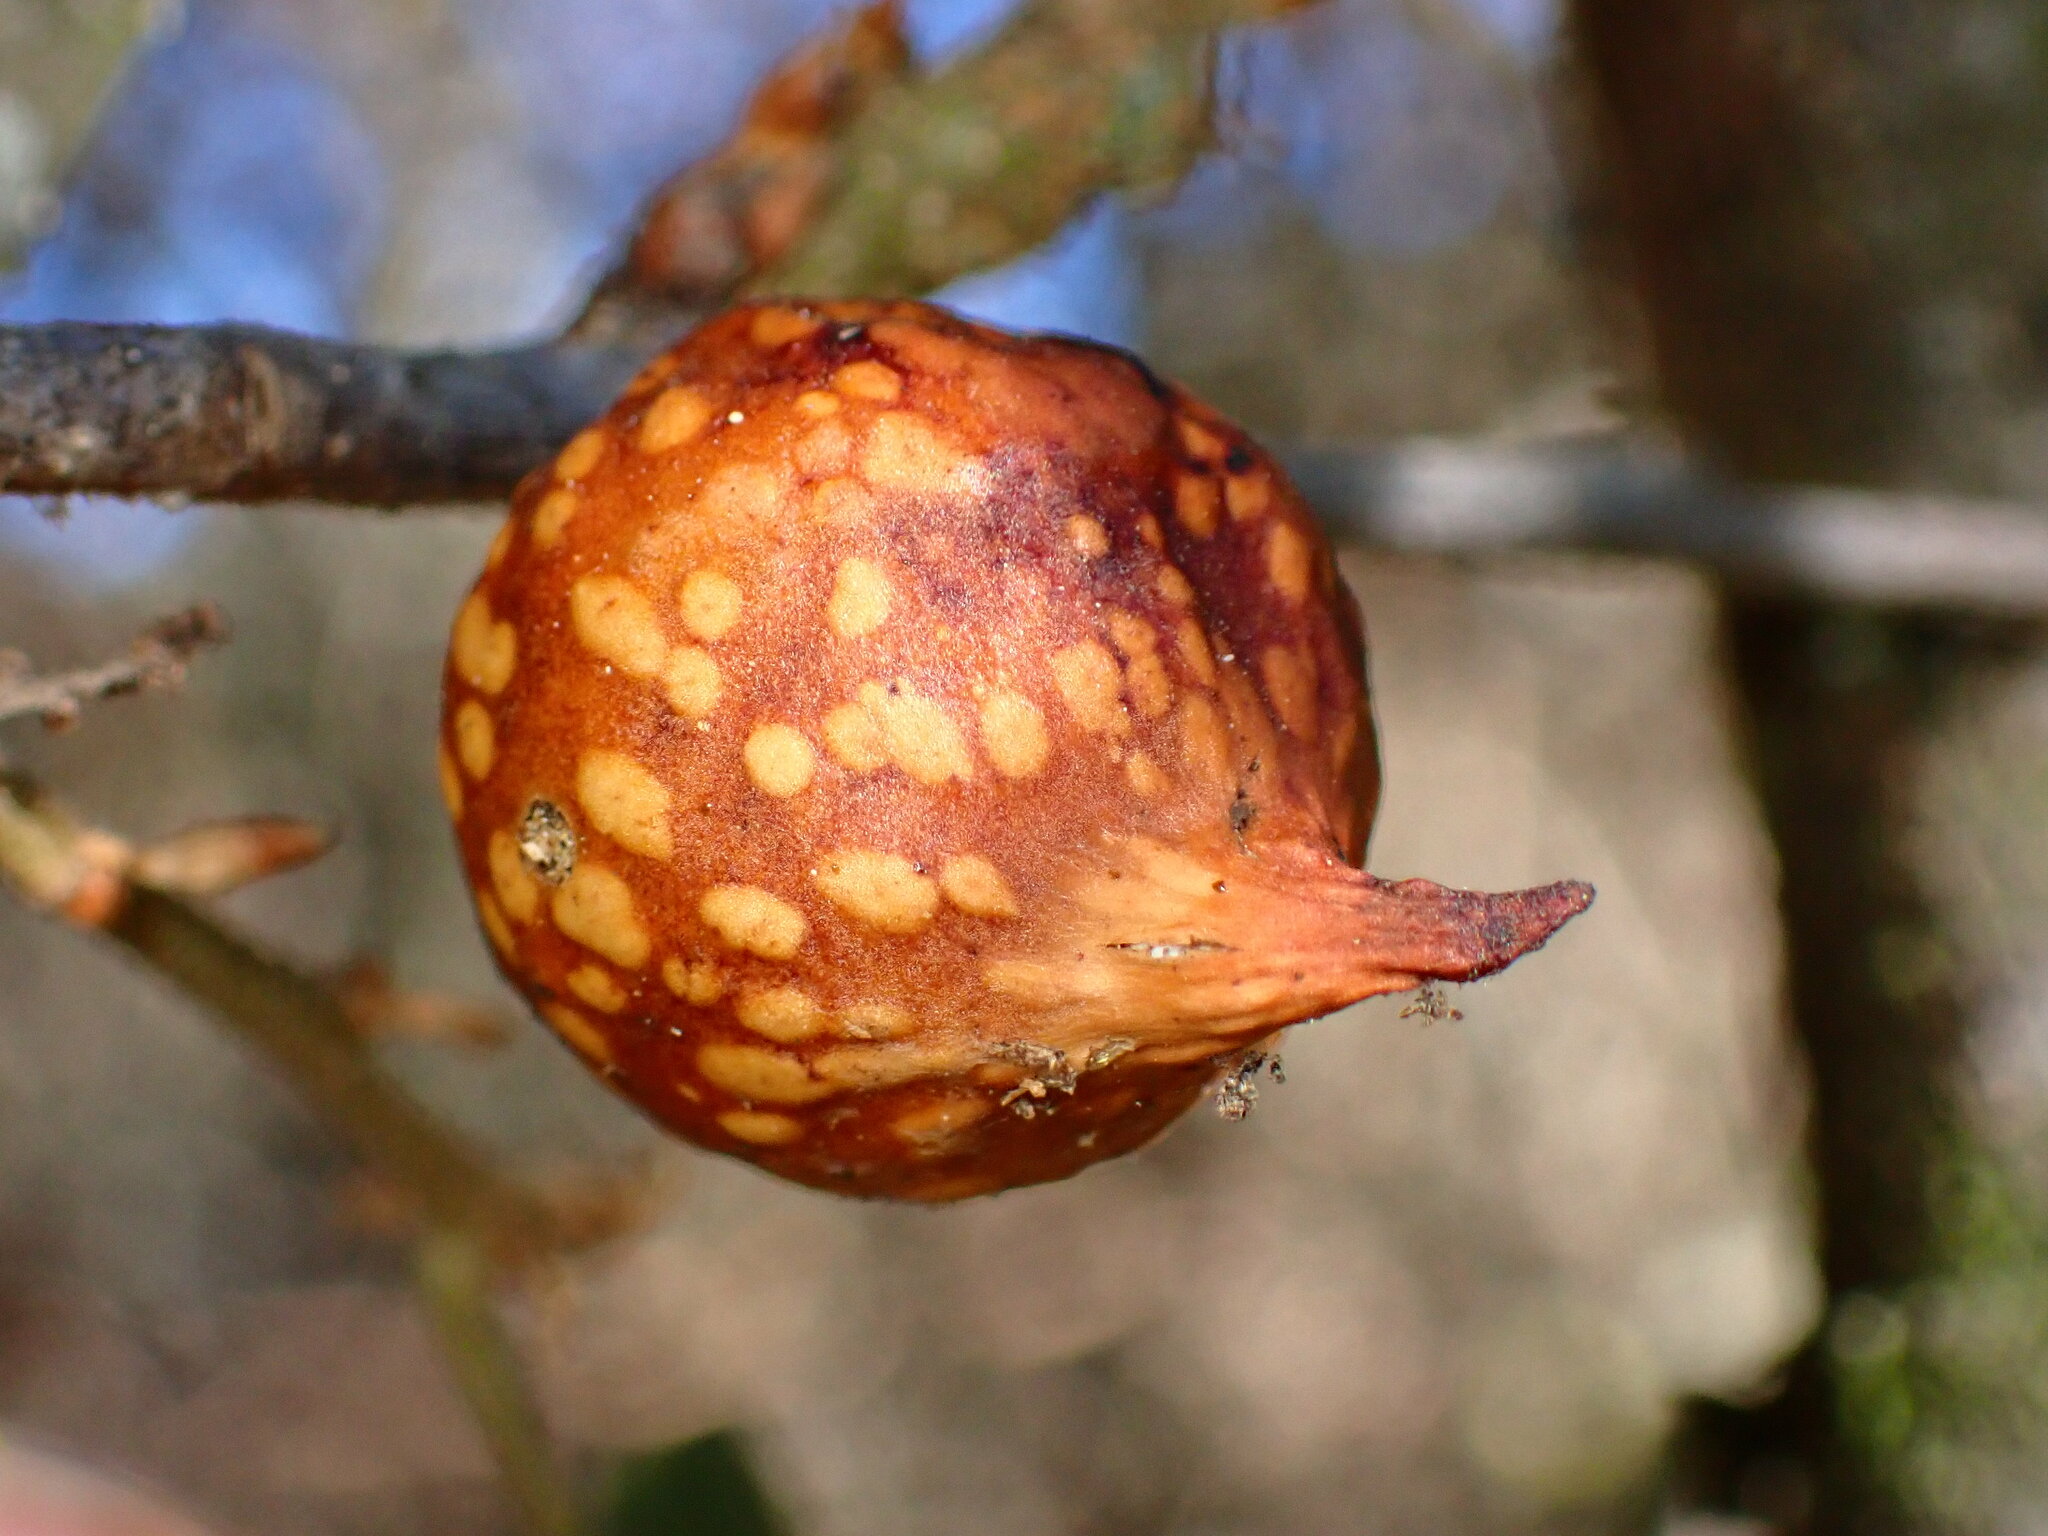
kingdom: Animalia
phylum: Arthropoda
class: Insecta
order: Hymenoptera
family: Cynipidae
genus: Burnettweldia
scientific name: Burnettweldia
